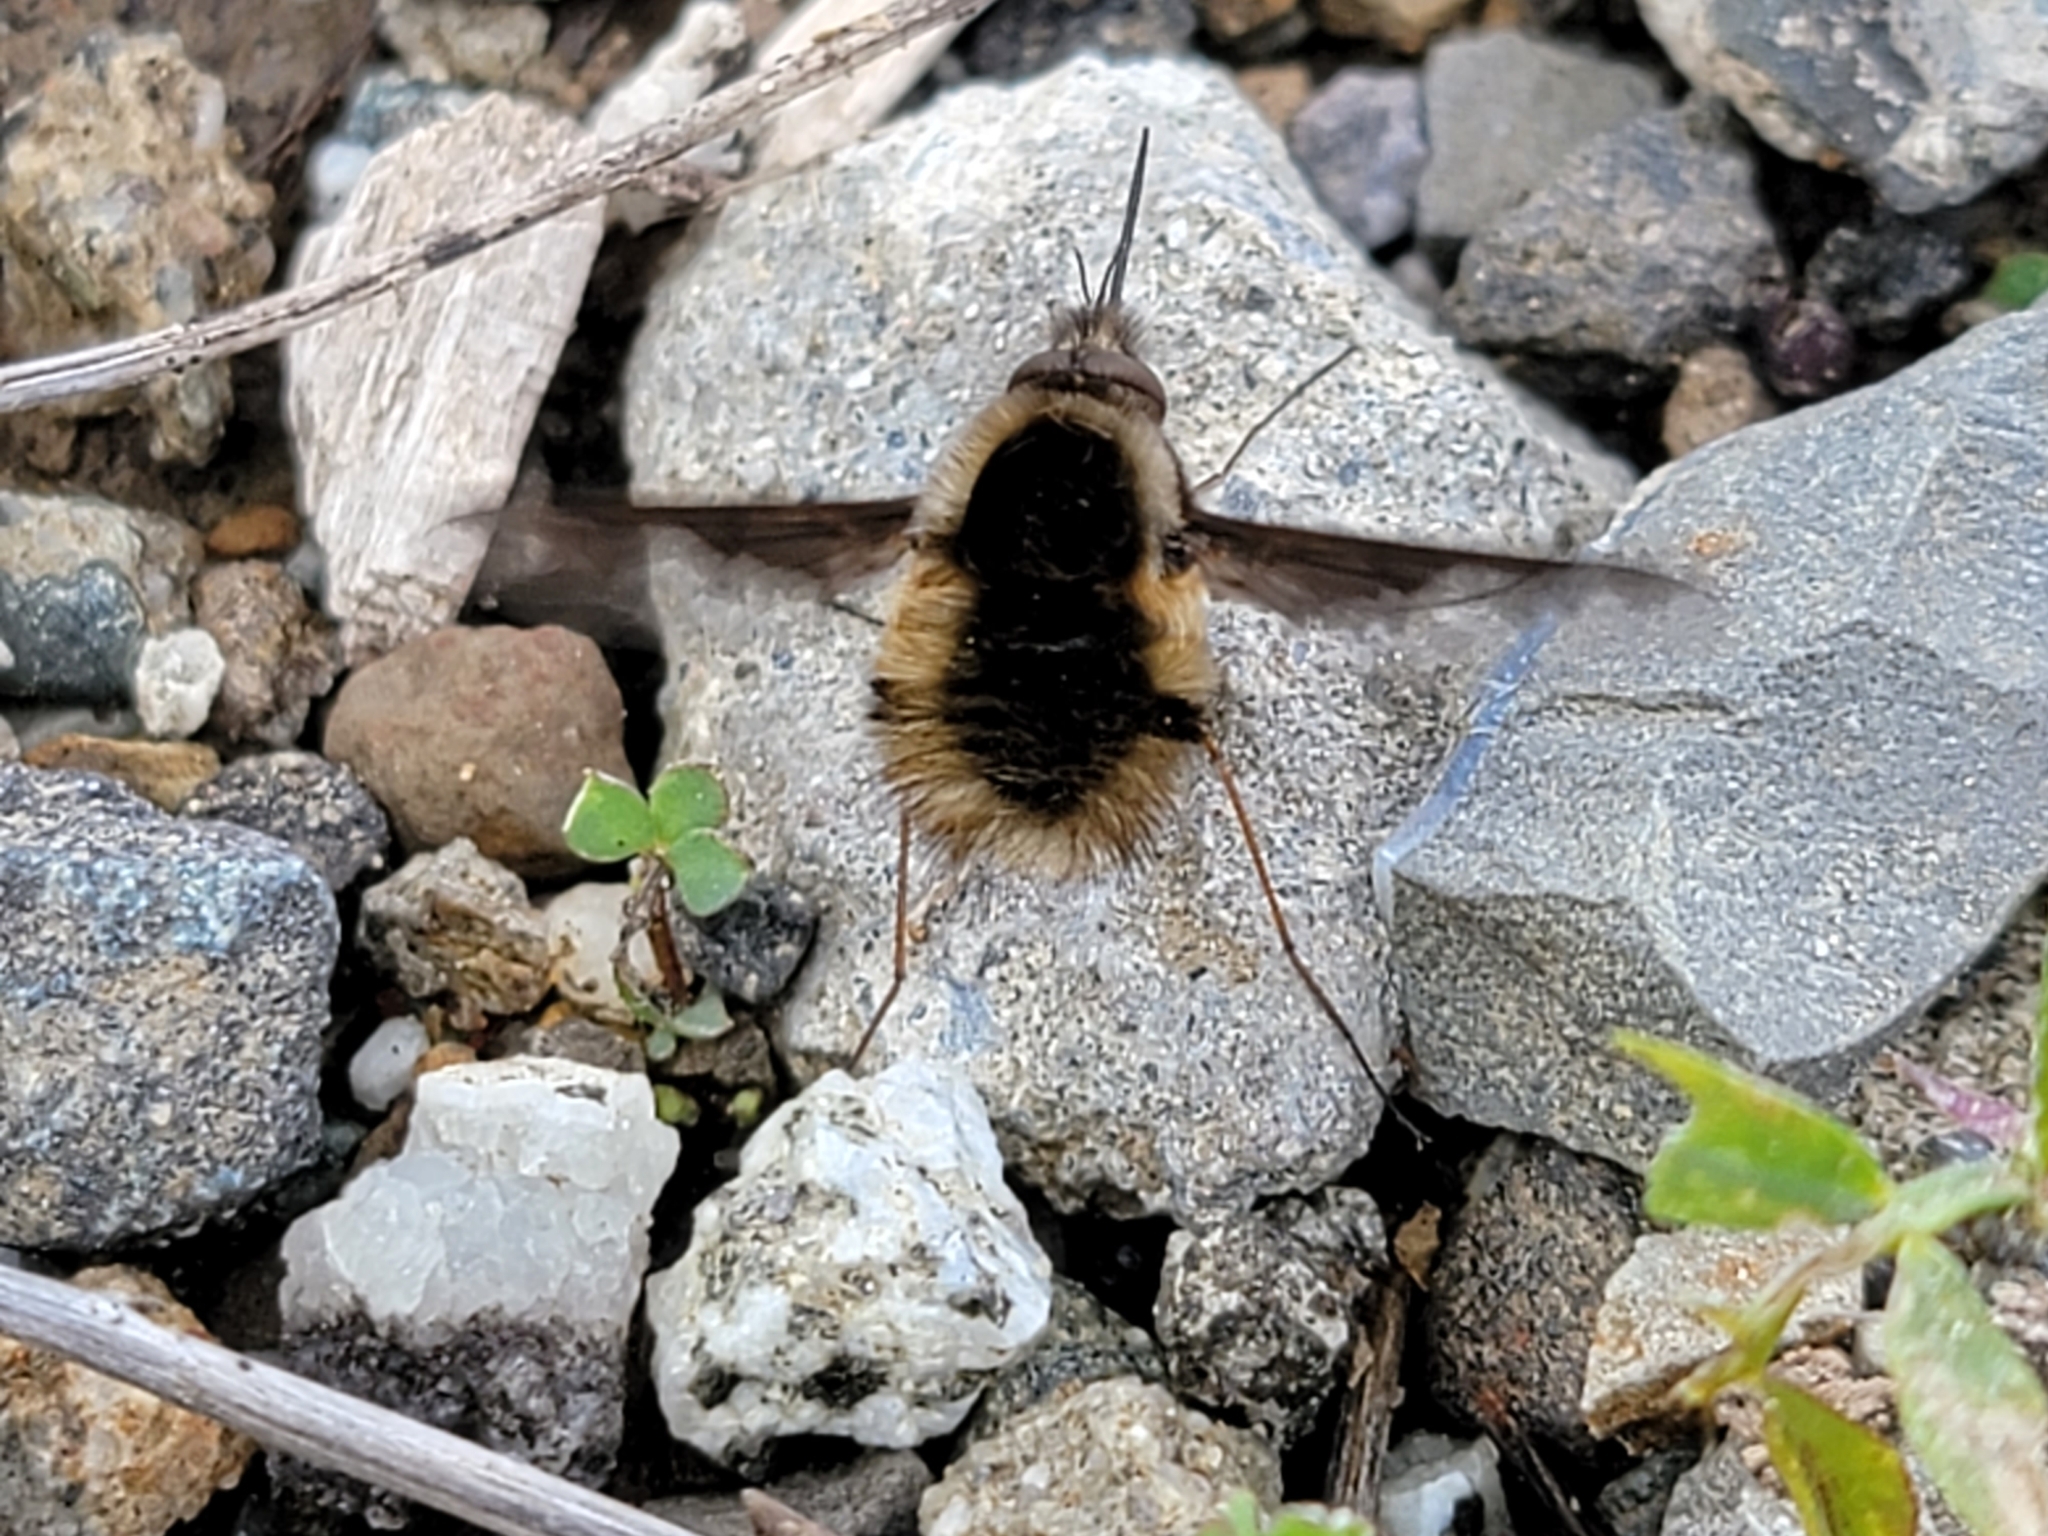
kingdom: Animalia
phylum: Arthropoda
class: Insecta
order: Diptera
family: Bombyliidae
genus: Bombylius
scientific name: Bombylius major
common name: Bee fly
